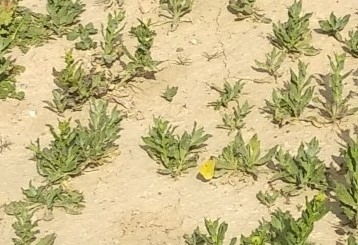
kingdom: Animalia
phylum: Arthropoda
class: Insecta
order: Lepidoptera
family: Pieridae
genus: Colias
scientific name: Colias croceus
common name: Clouded yellow
